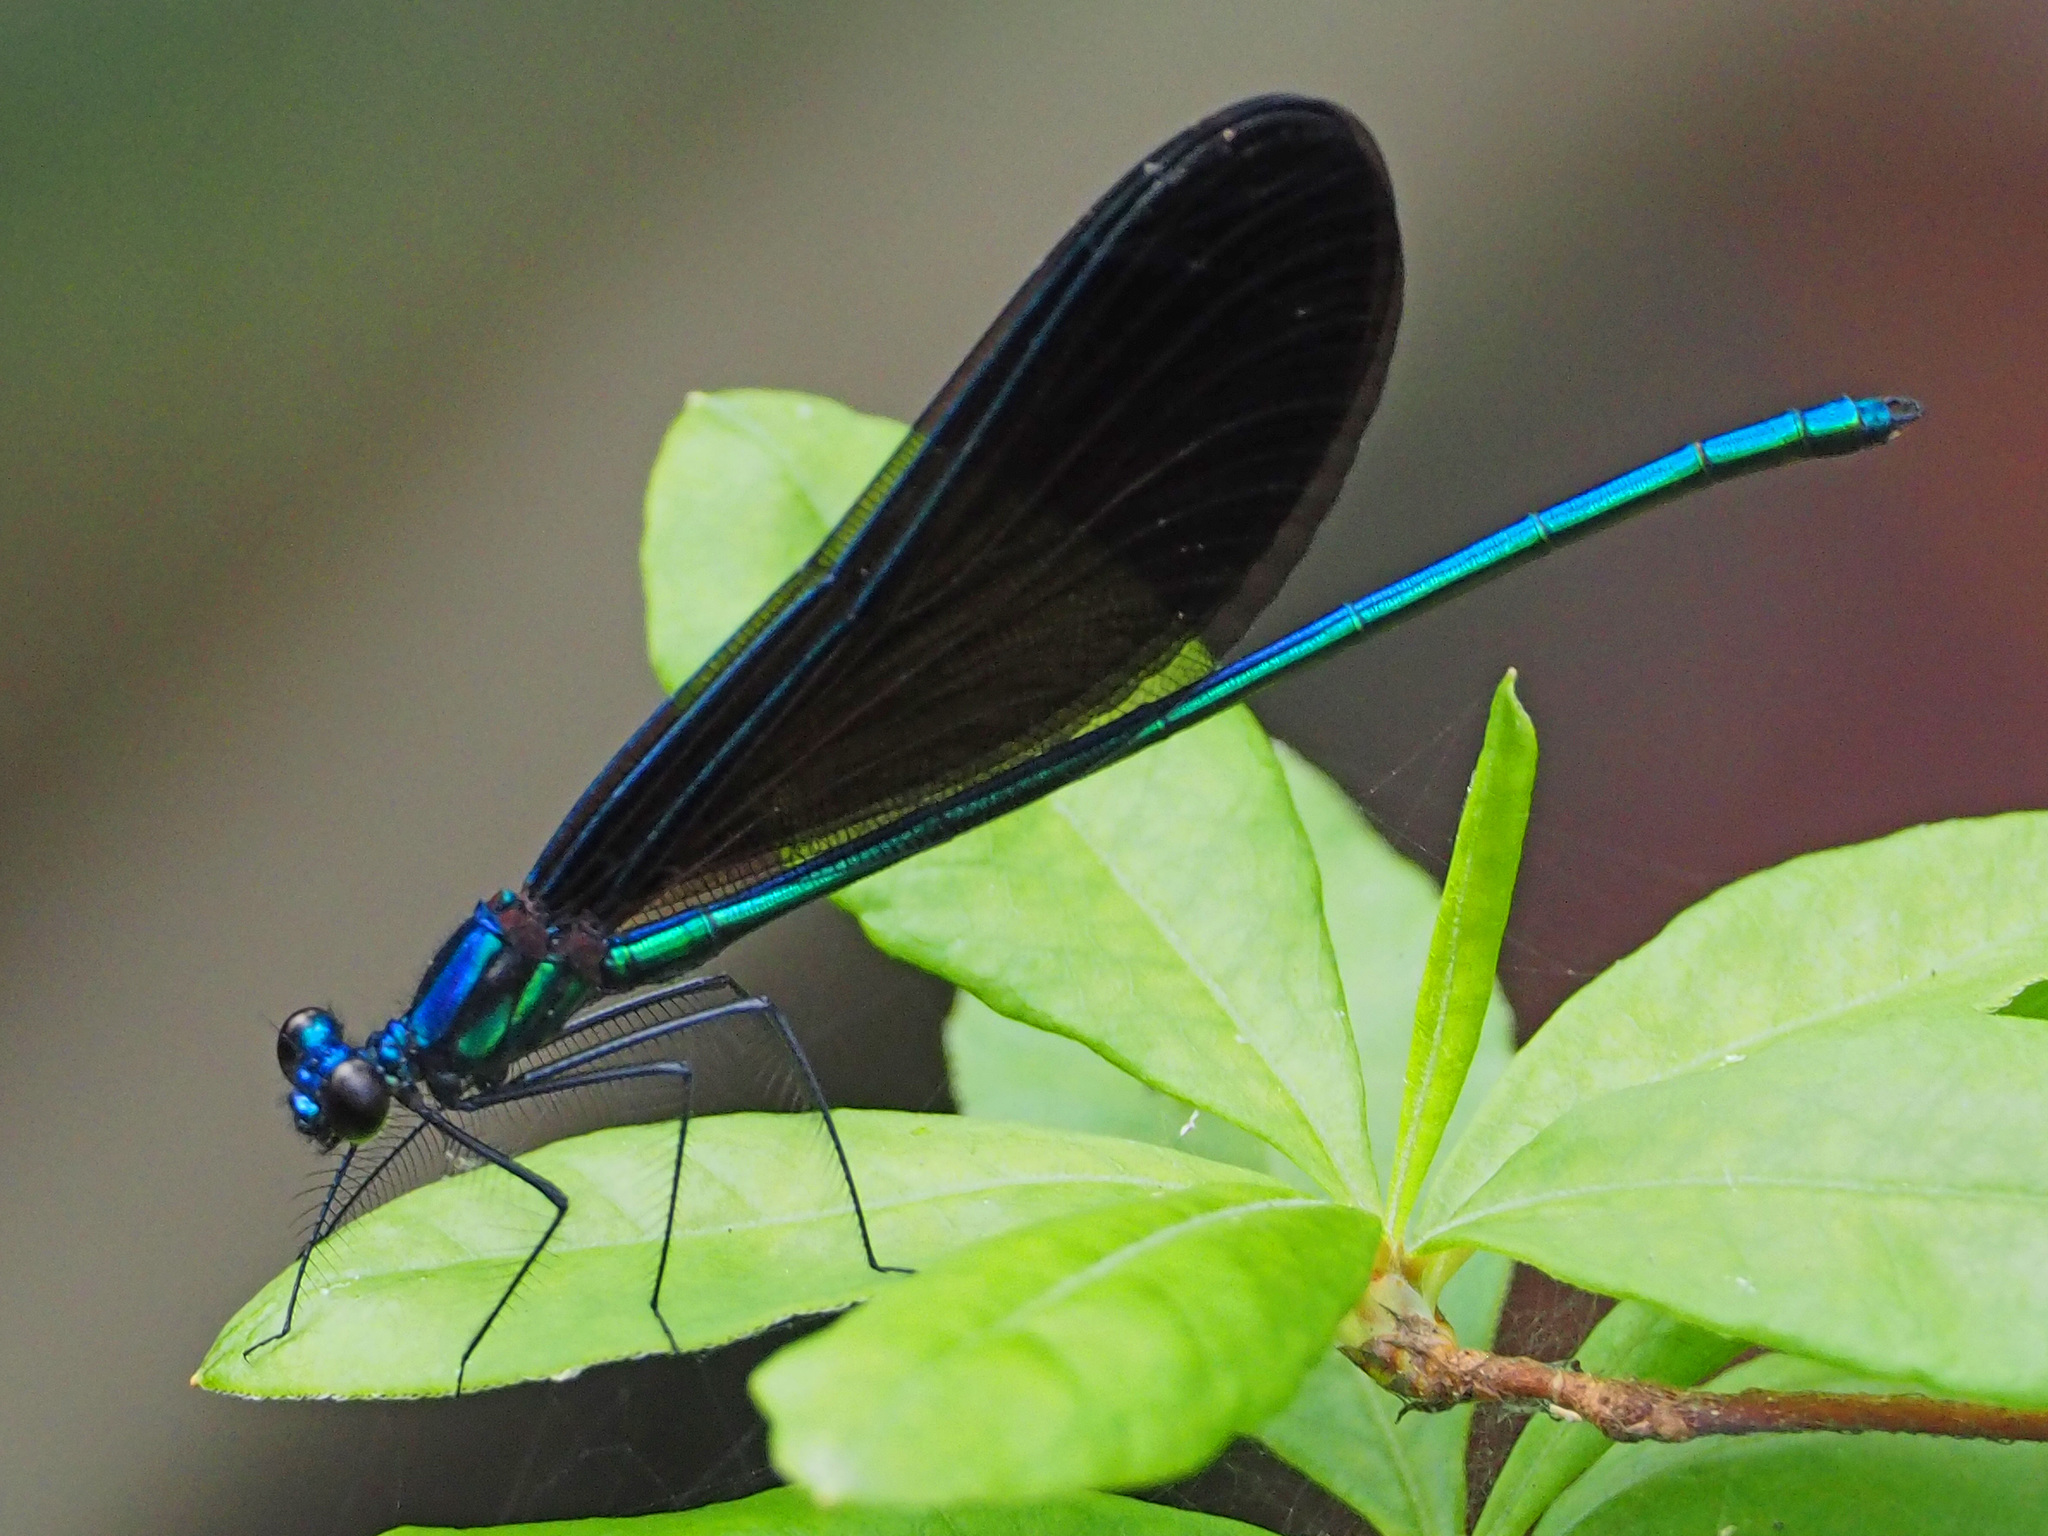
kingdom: Animalia
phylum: Arthropoda
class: Insecta
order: Odonata
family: Calopterygidae
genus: Calopteryx
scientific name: Calopteryx maculata
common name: Ebony jewelwing
